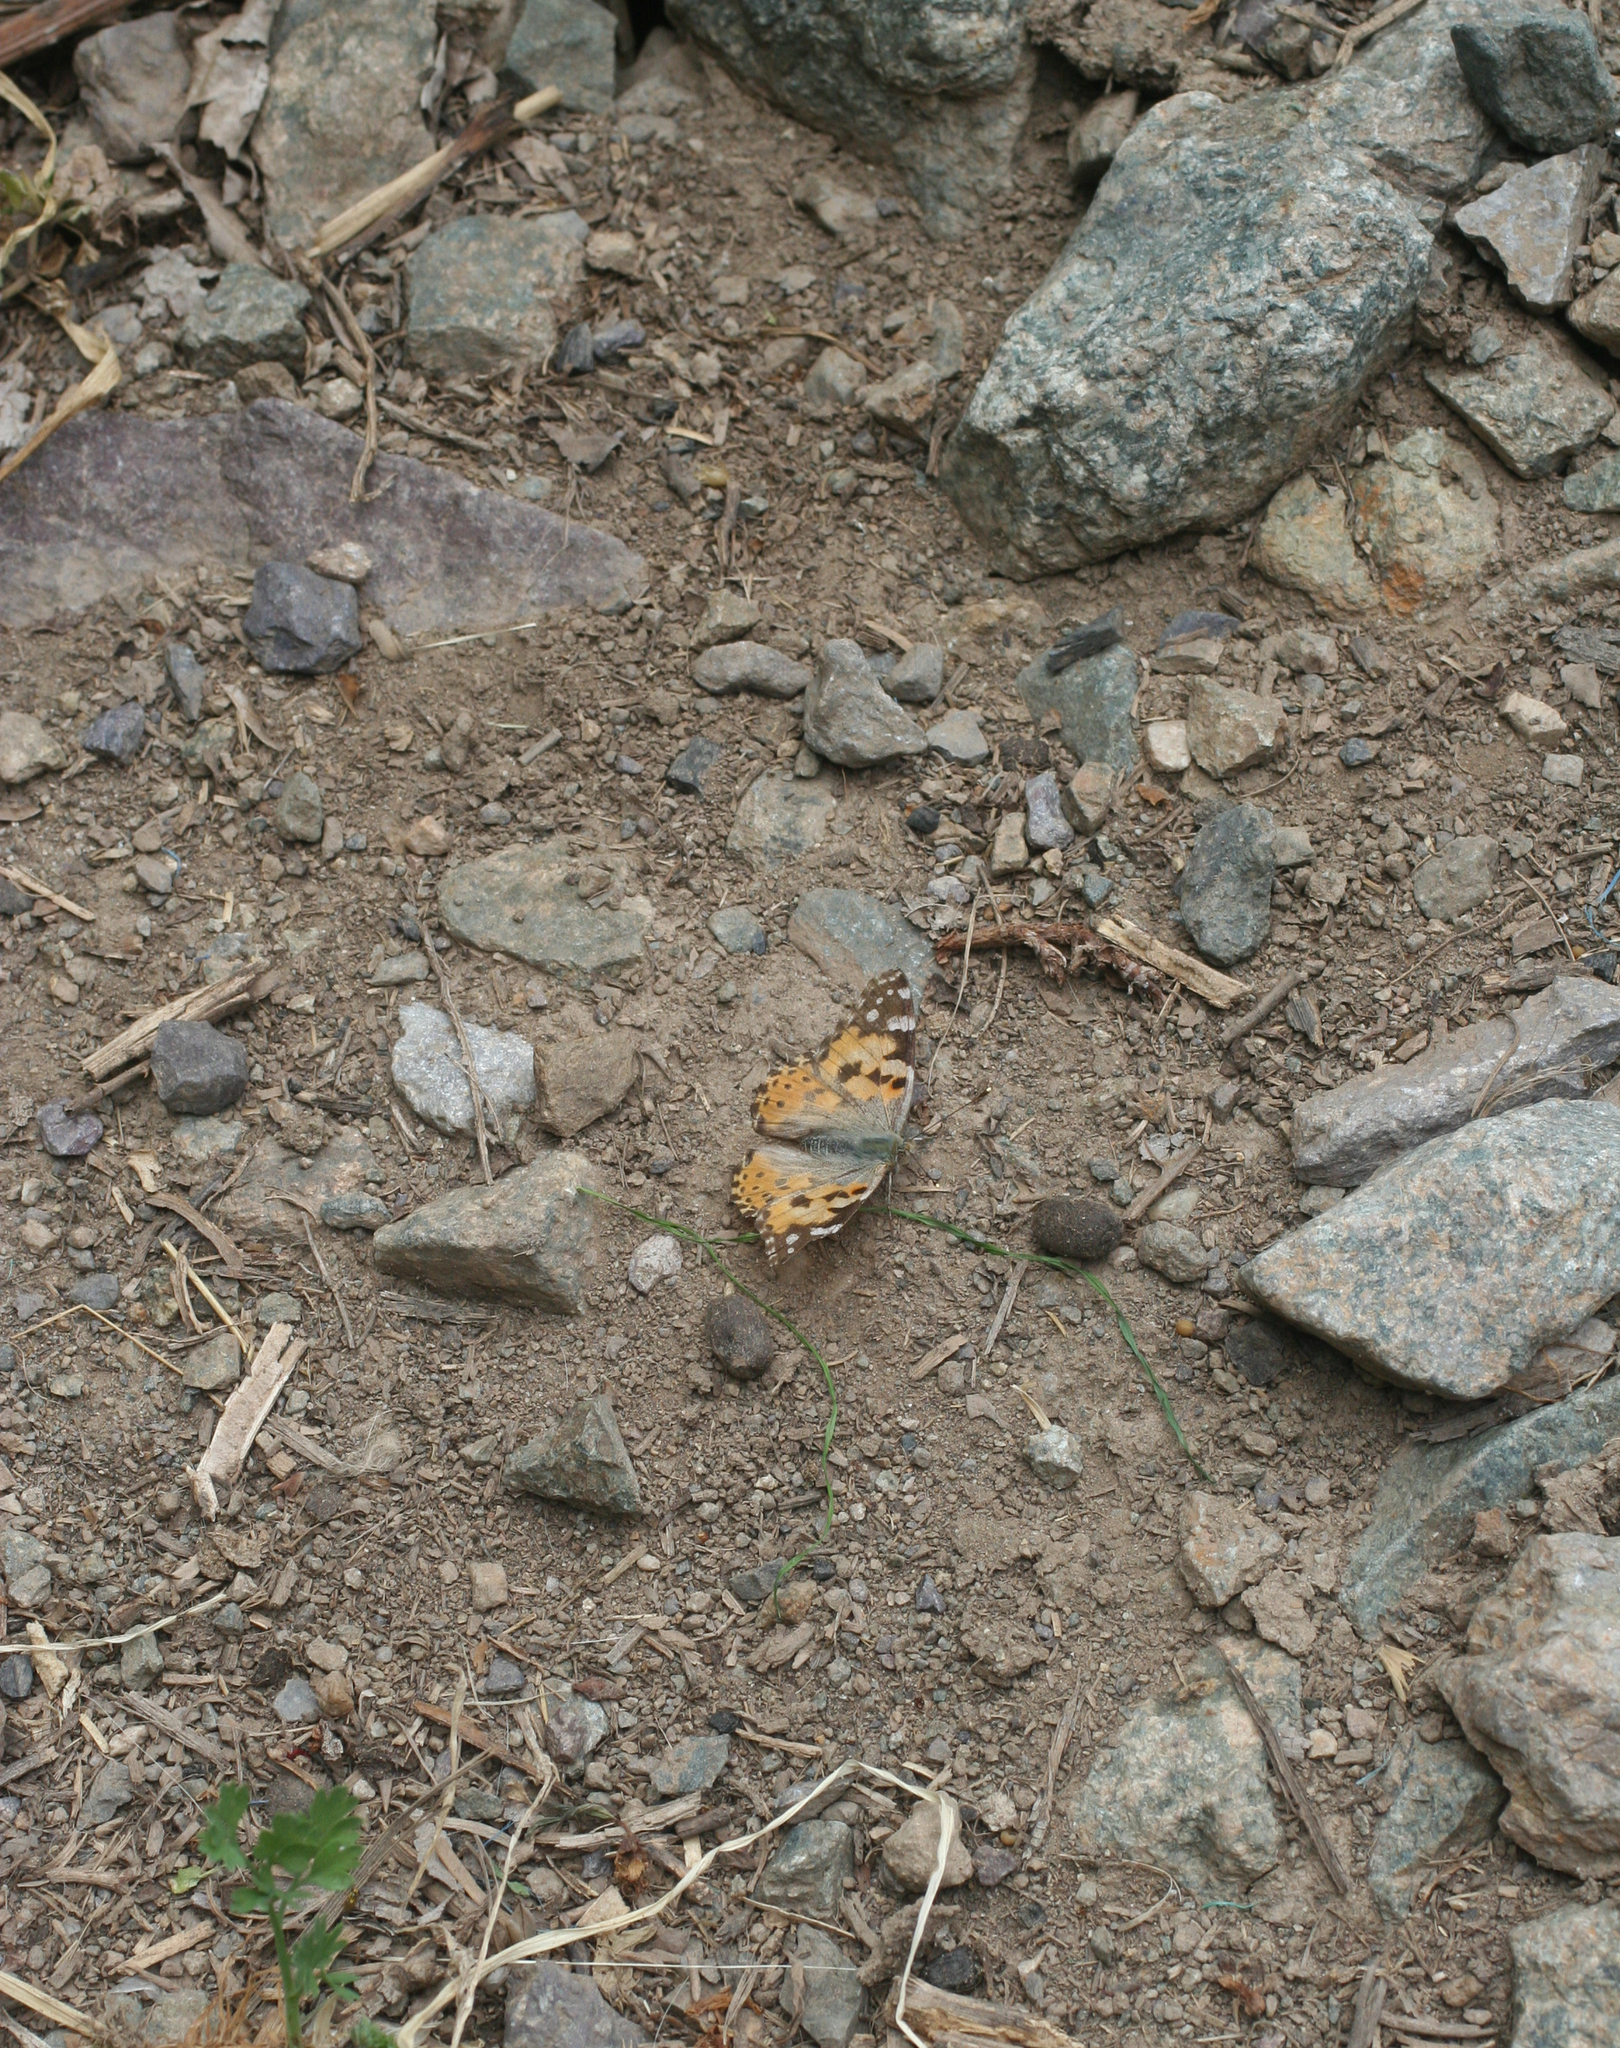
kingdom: Animalia
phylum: Arthropoda
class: Insecta
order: Lepidoptera
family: Nymphalidae
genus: Vanessa
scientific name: Vanessa cardui
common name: Painted lady
